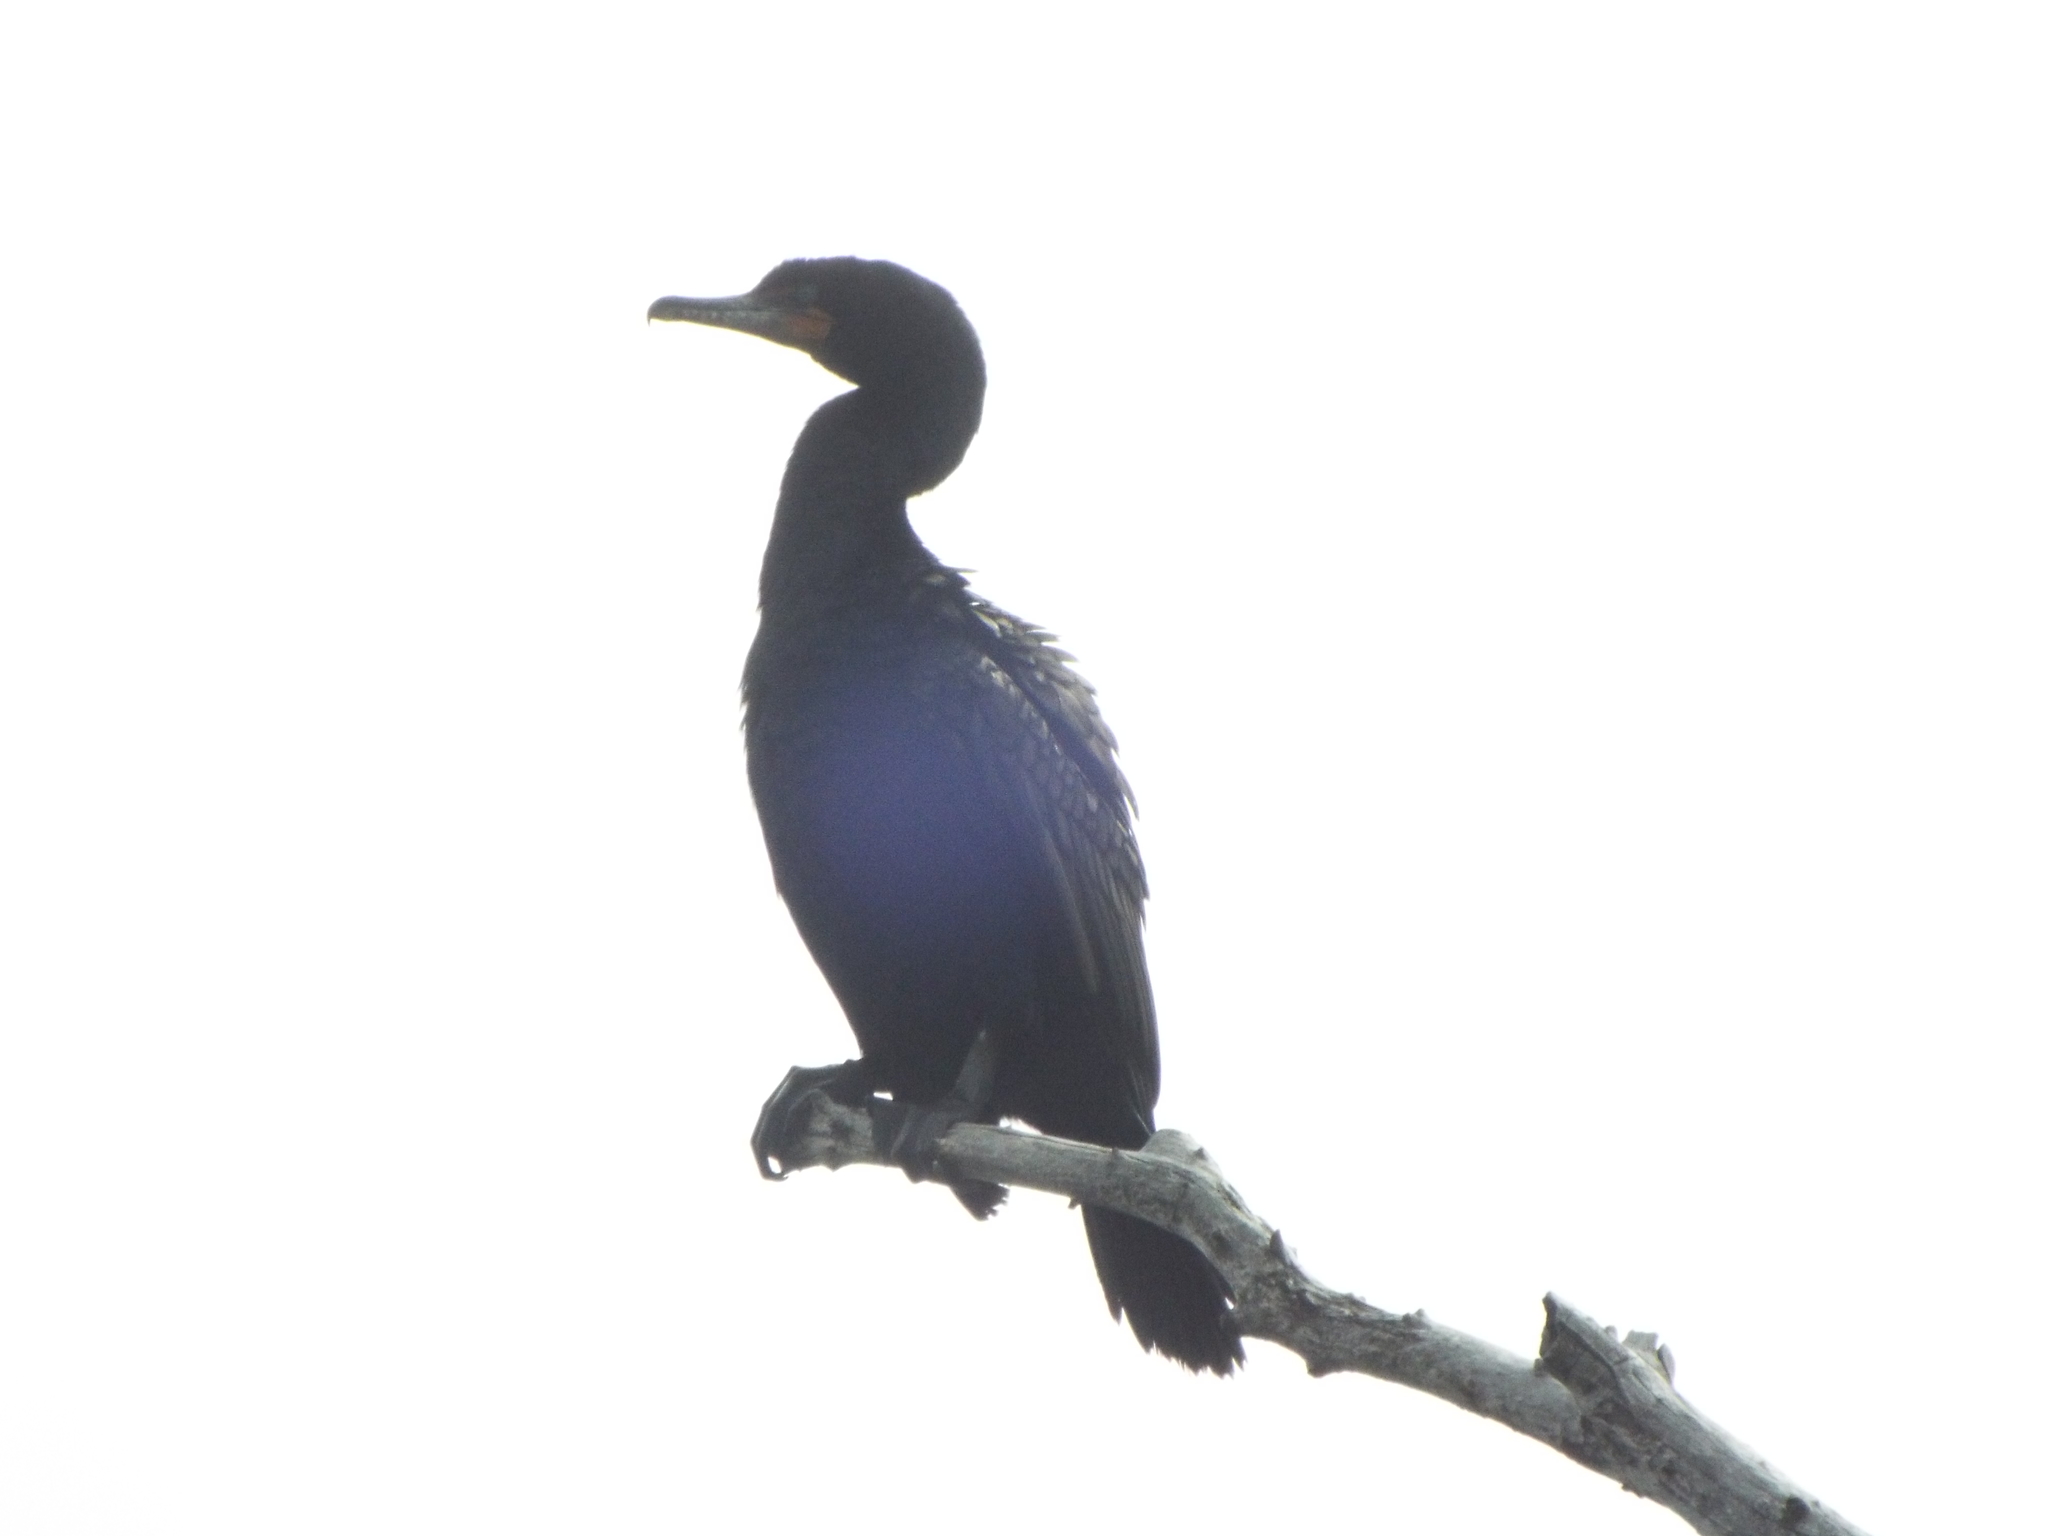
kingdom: Animalia
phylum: Chordata
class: Aves
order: Suliformes
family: Phalacrocoracidae
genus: Phalacrocorax
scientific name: Phalacrocorax auritus
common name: Double-crested cormorant
